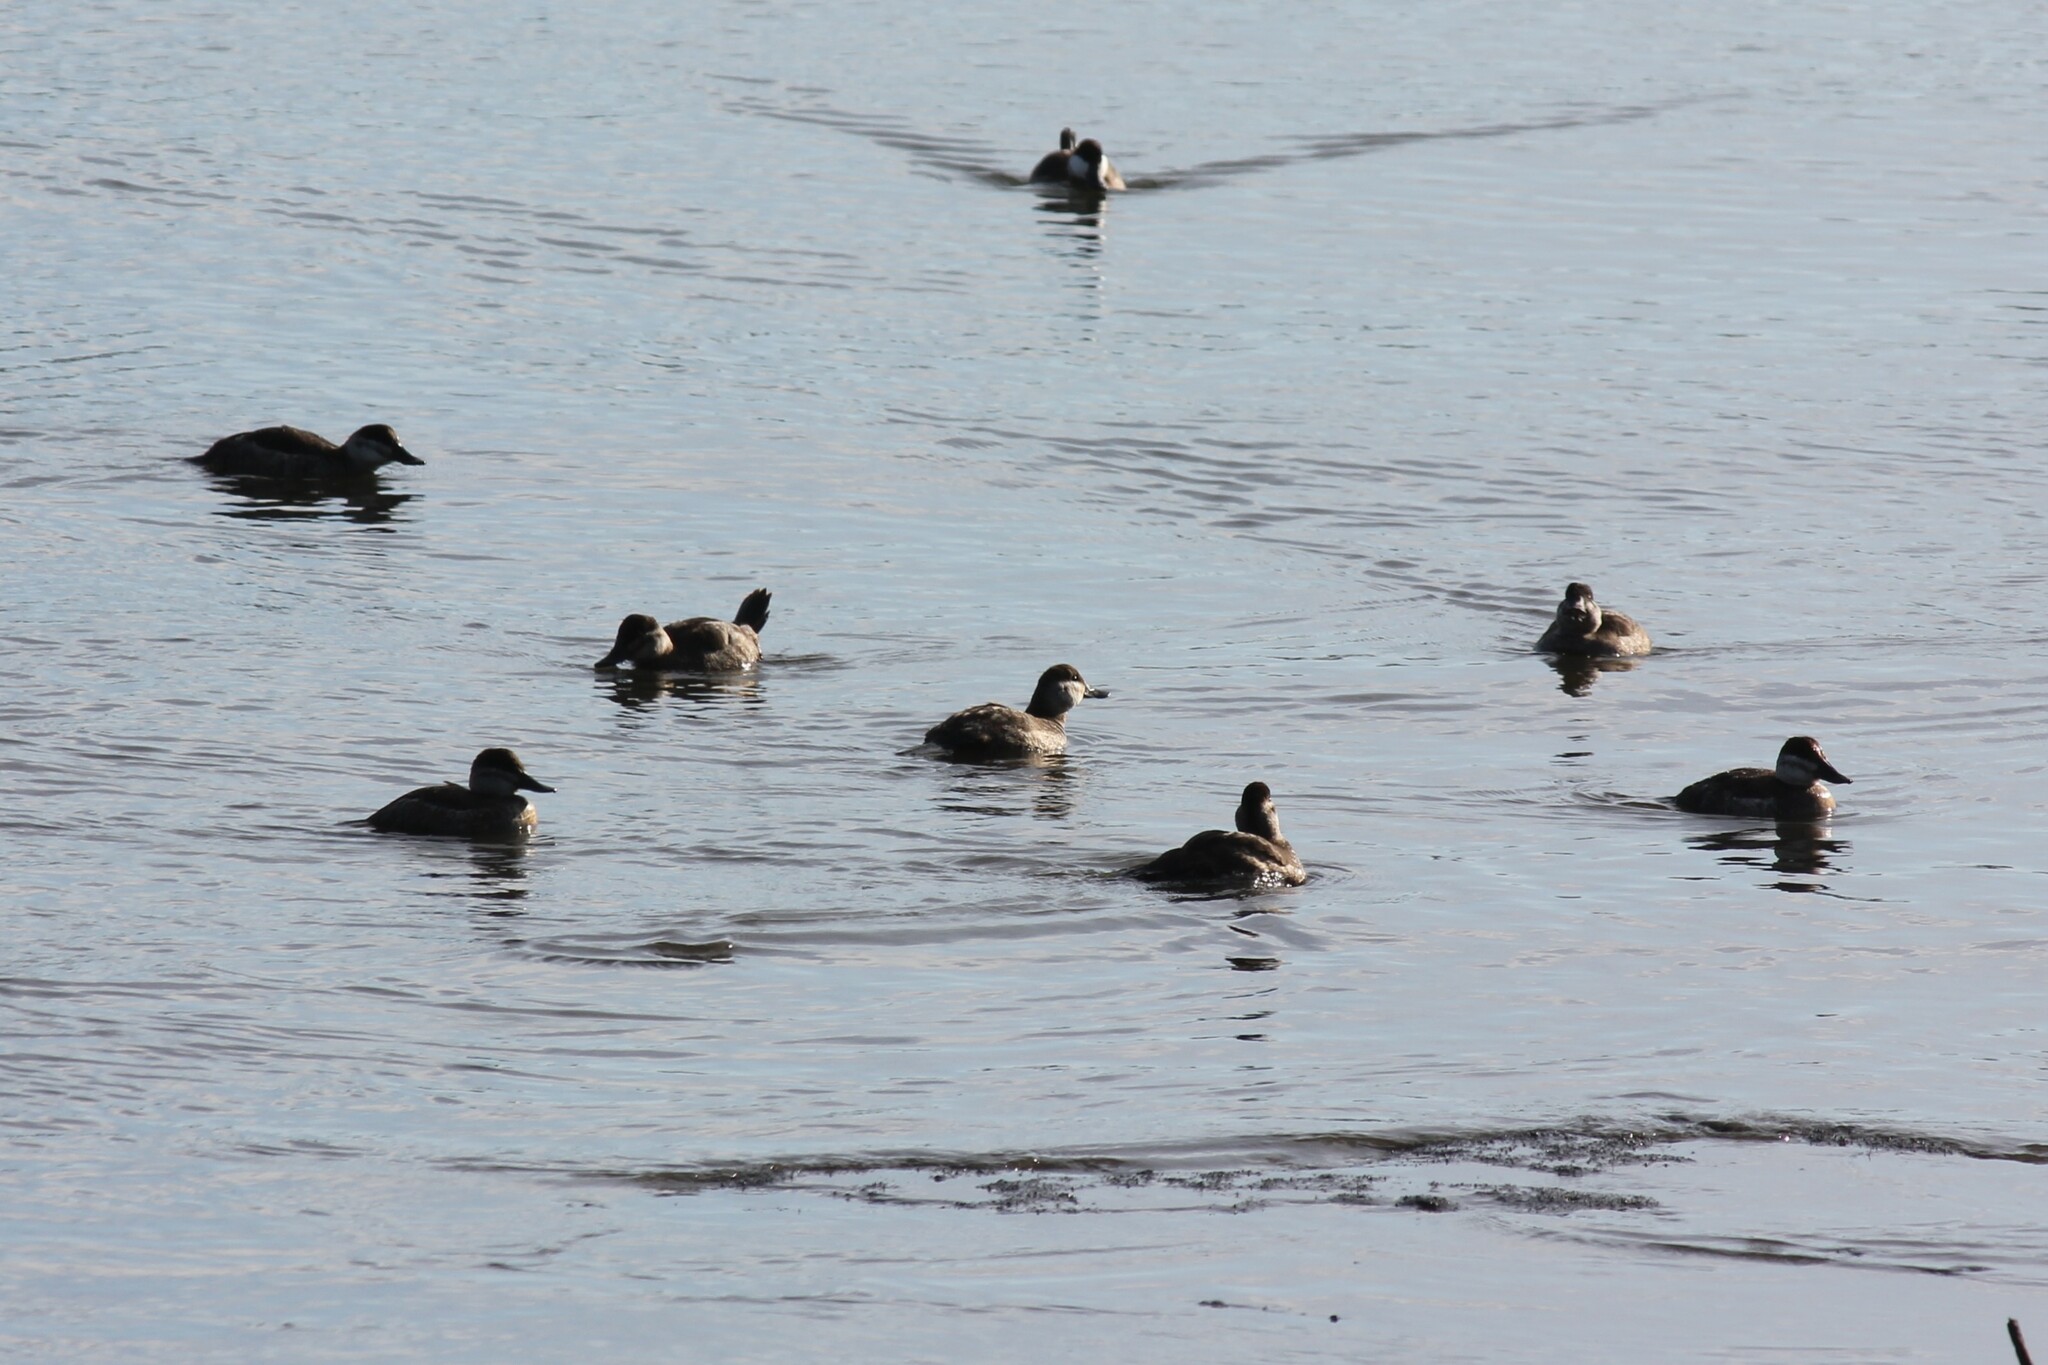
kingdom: Animalia
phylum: Chordata
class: Aves
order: Anseriformes
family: Anatidae
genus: Oxyura
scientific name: Oxyura jamaicensis
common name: Ruddy duck
